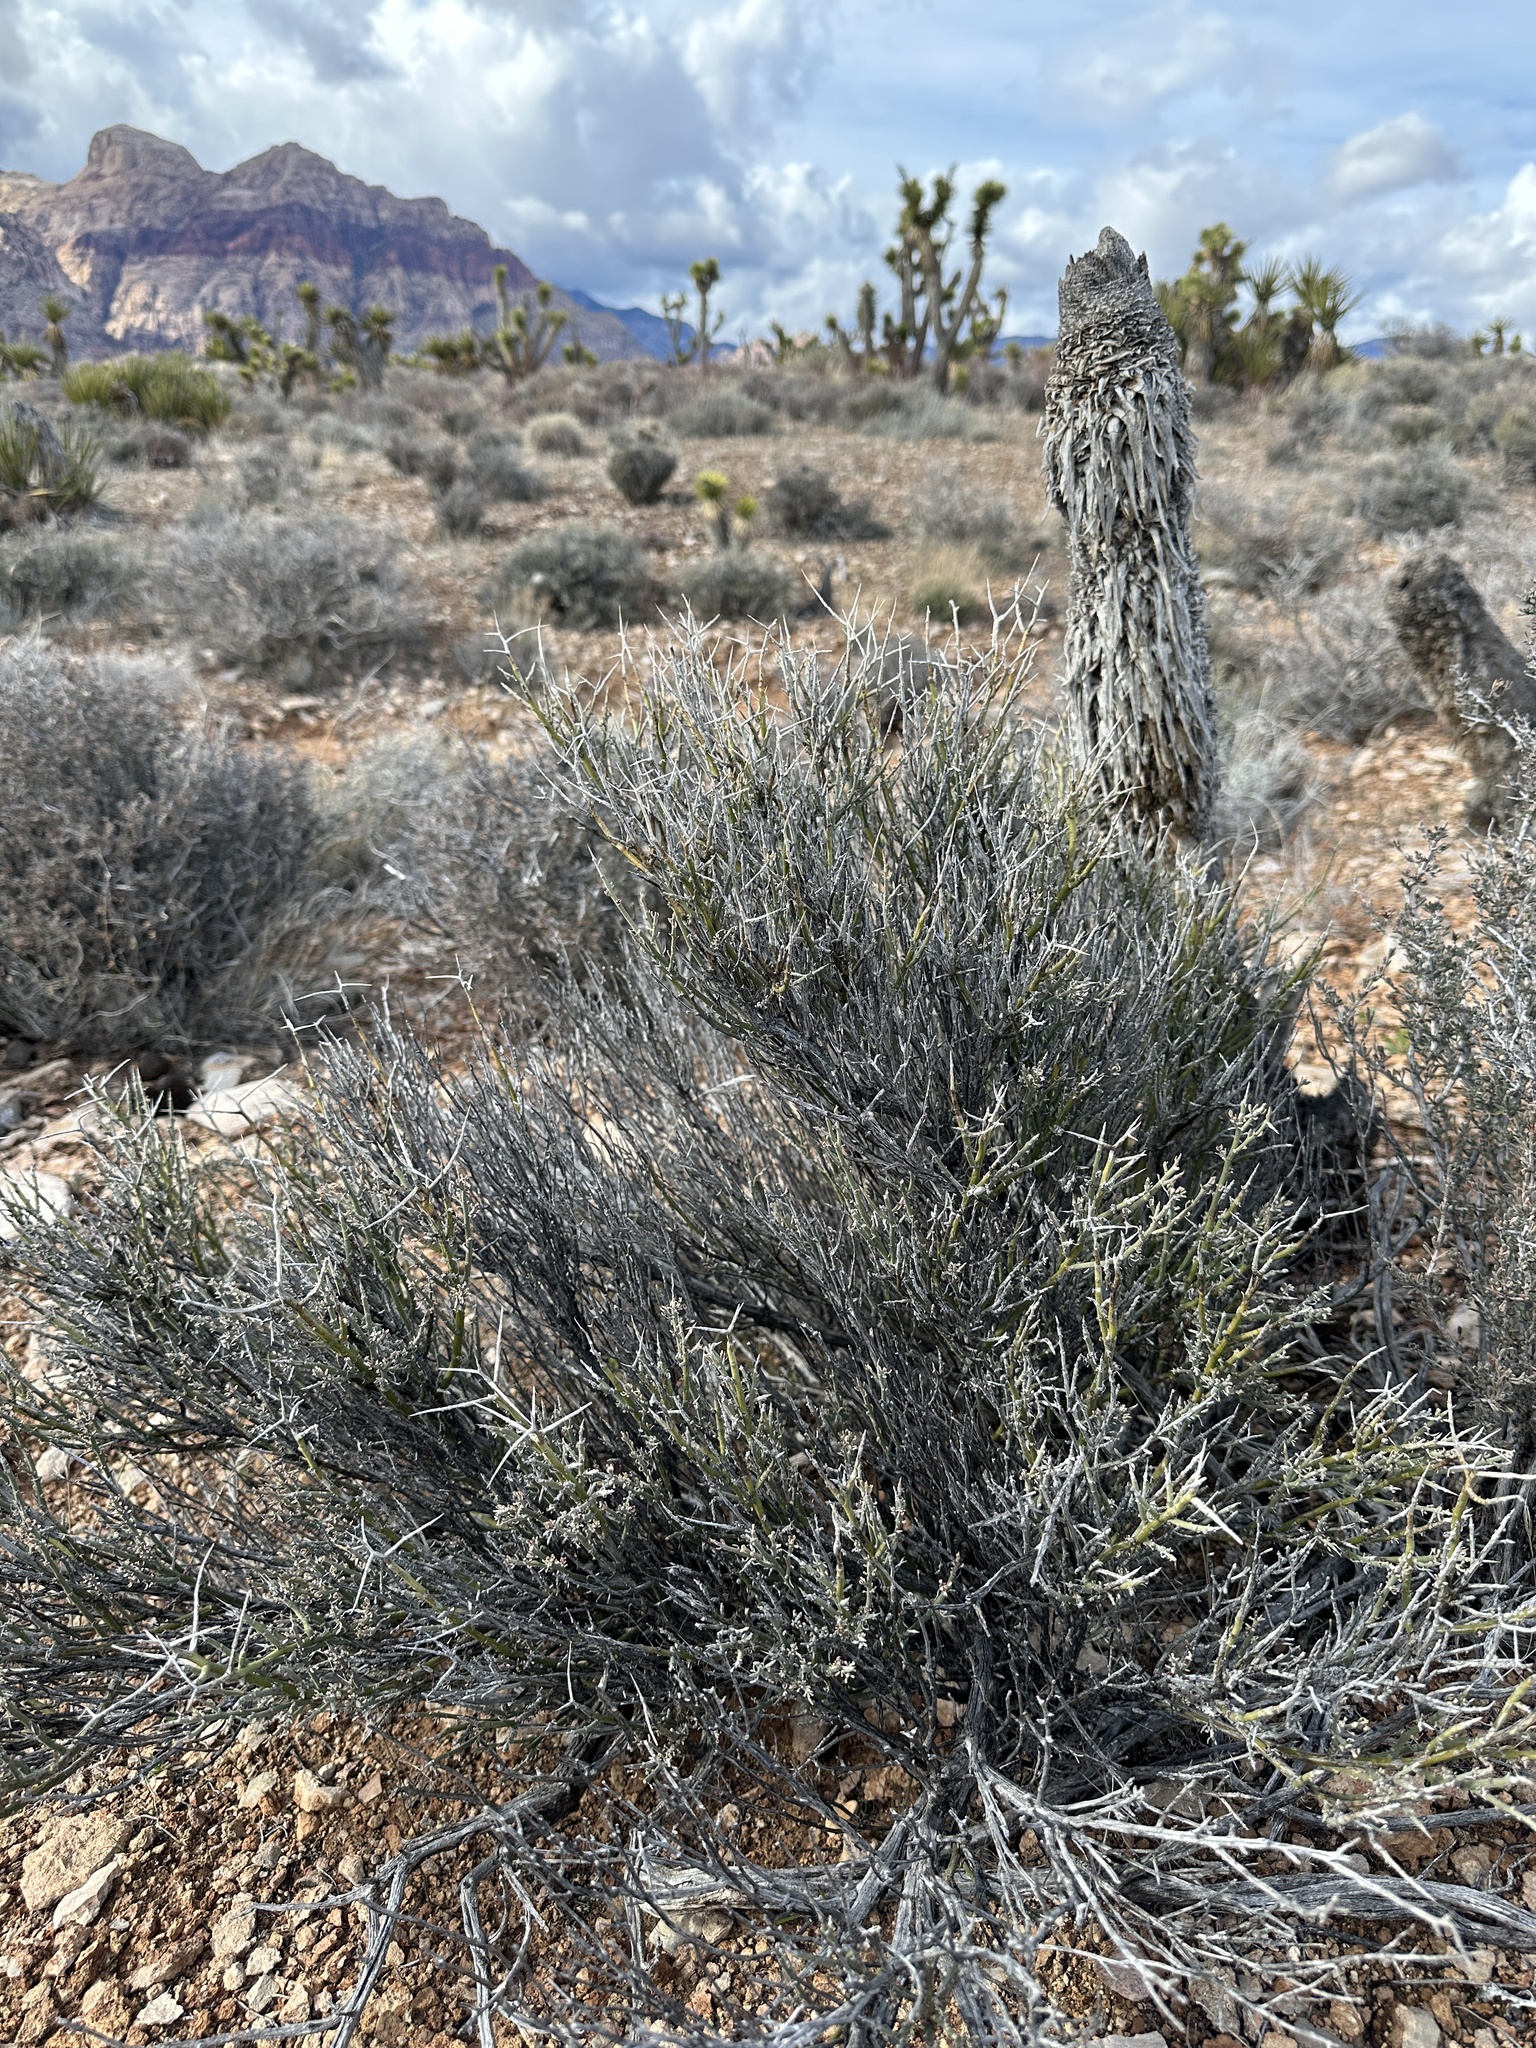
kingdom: Plantae
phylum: Tracheophyta
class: Magnoliopsida
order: Lamiales
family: Oleaceae
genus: Menodora
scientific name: Menodora spinescens
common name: Spiny menodora
